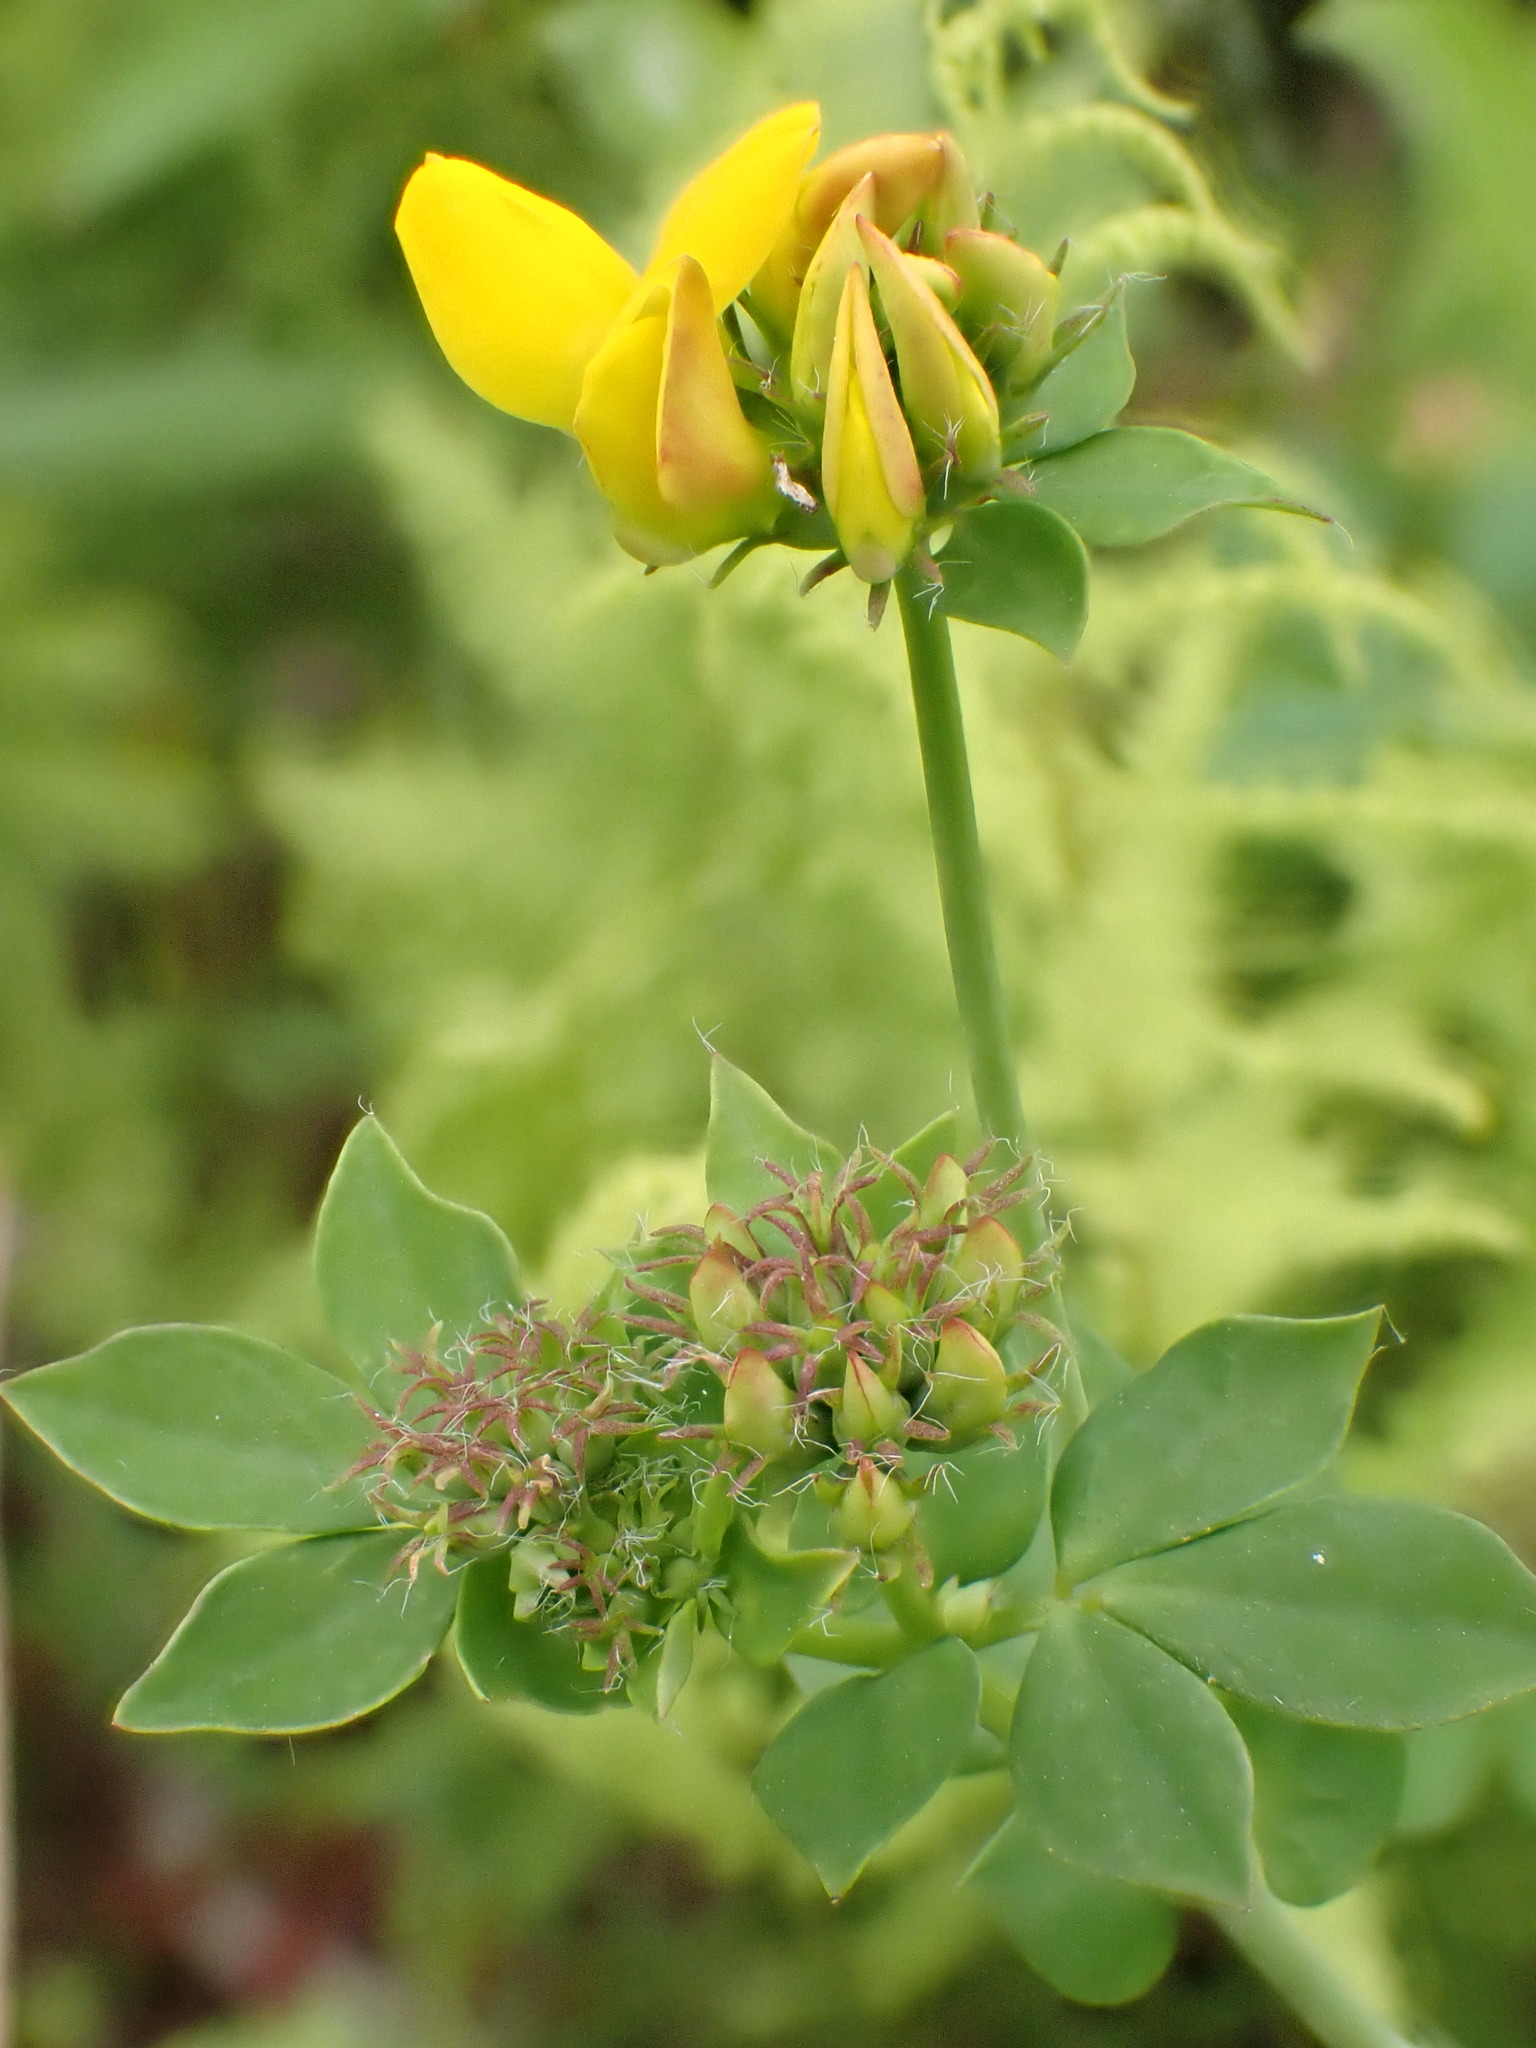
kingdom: Plantae
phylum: Tracheophyta
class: Magnoliopsida
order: Fabales
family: Fabaceae
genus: Lotus
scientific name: Lotus pedunculatus
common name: Greater birdsfoot-trefoil
